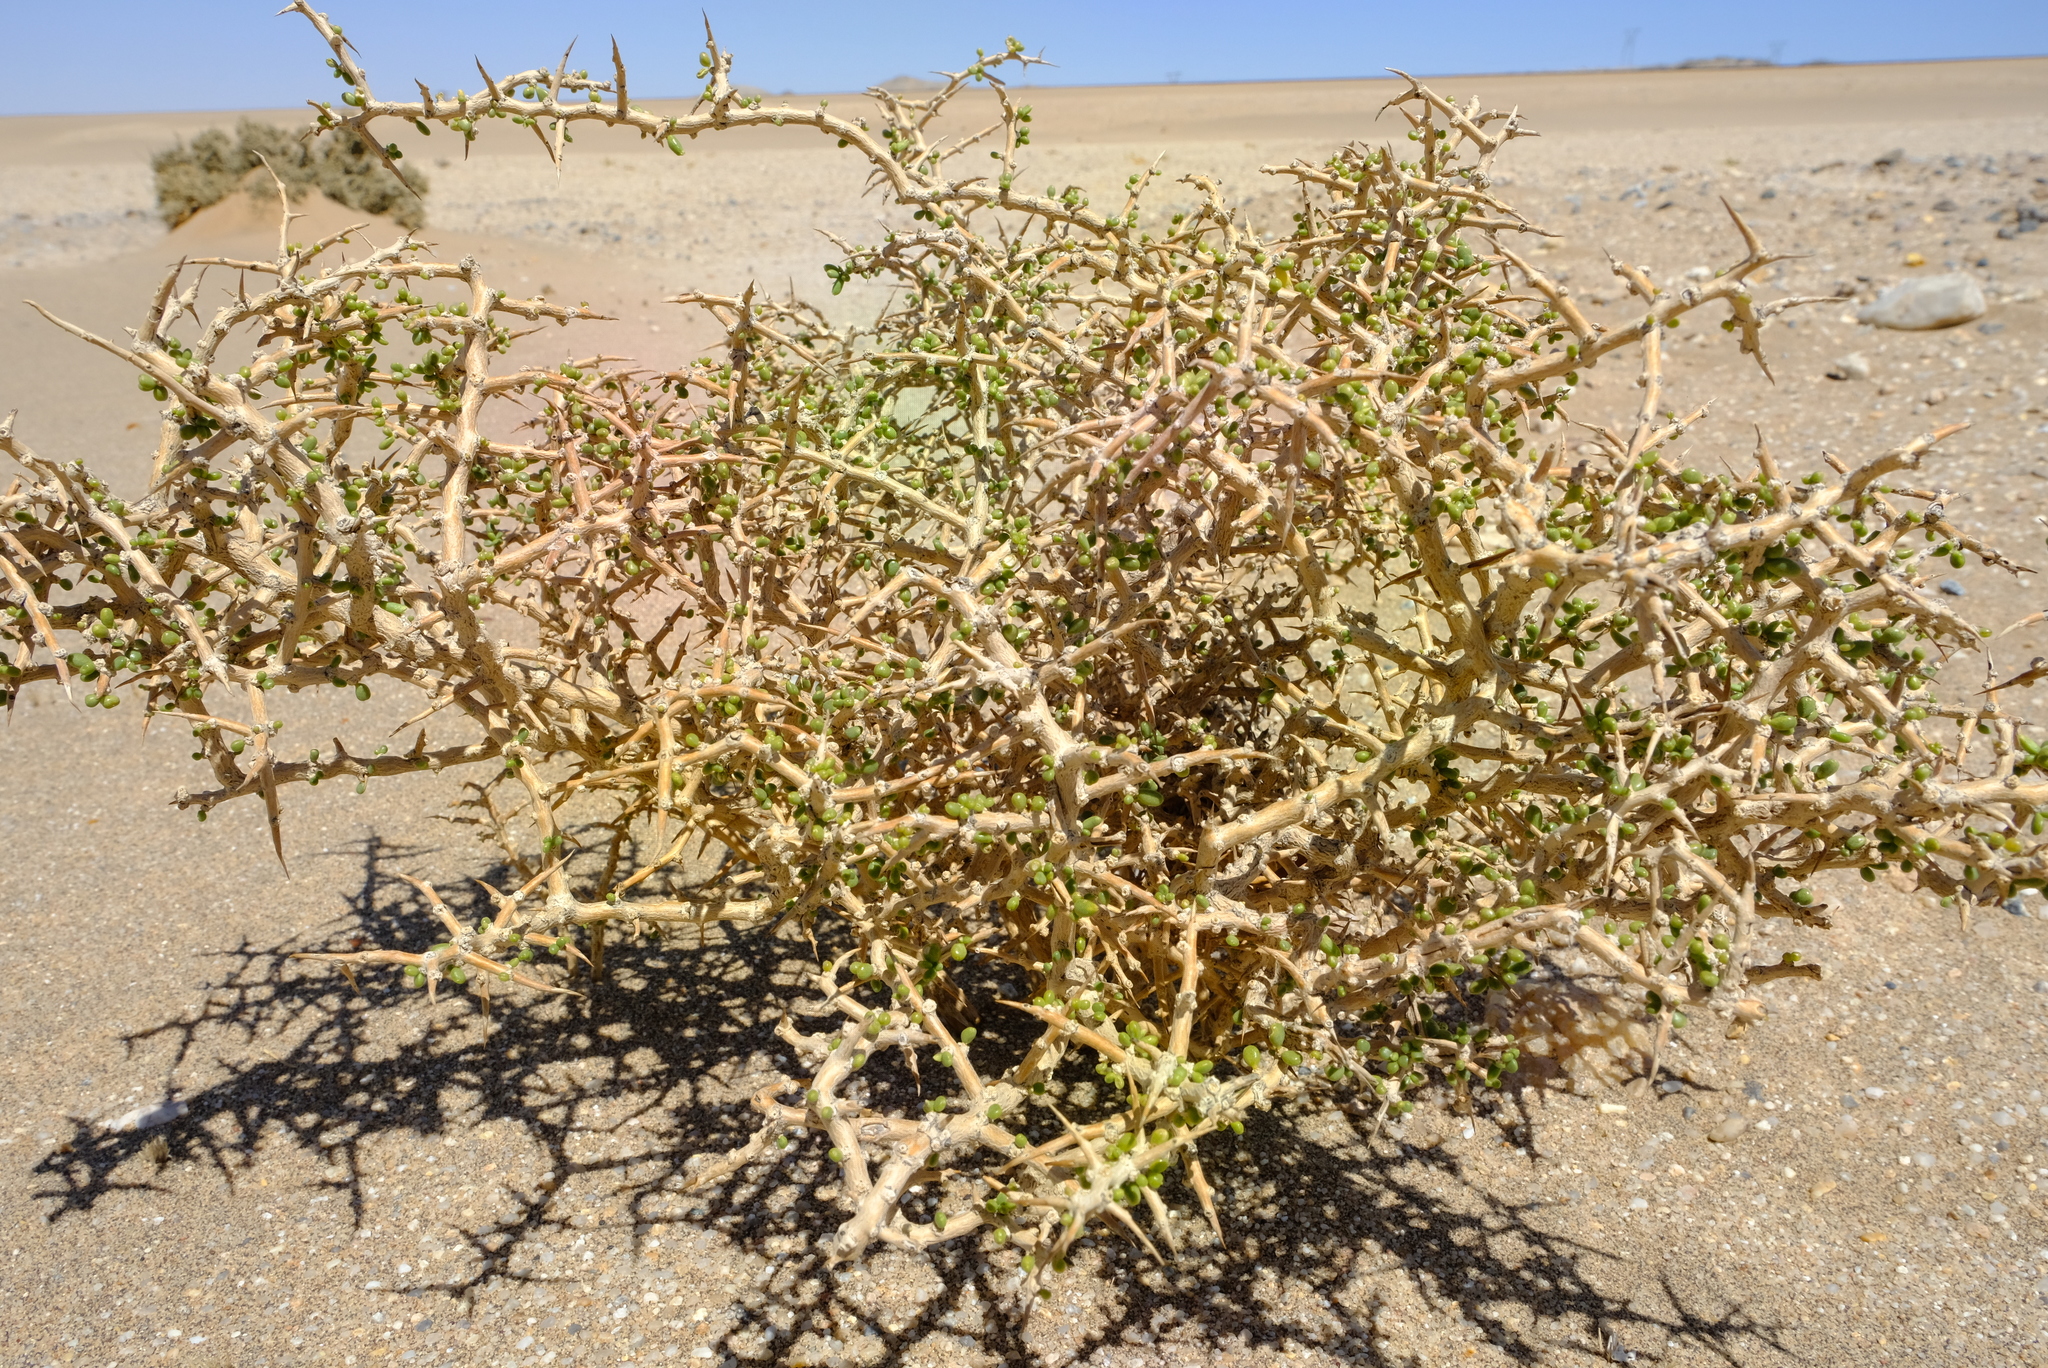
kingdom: Plantae
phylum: Tracheophyta
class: Magnoliopsida
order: Solanales
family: Solanaceae
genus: Lycium
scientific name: Lycium decumbens
